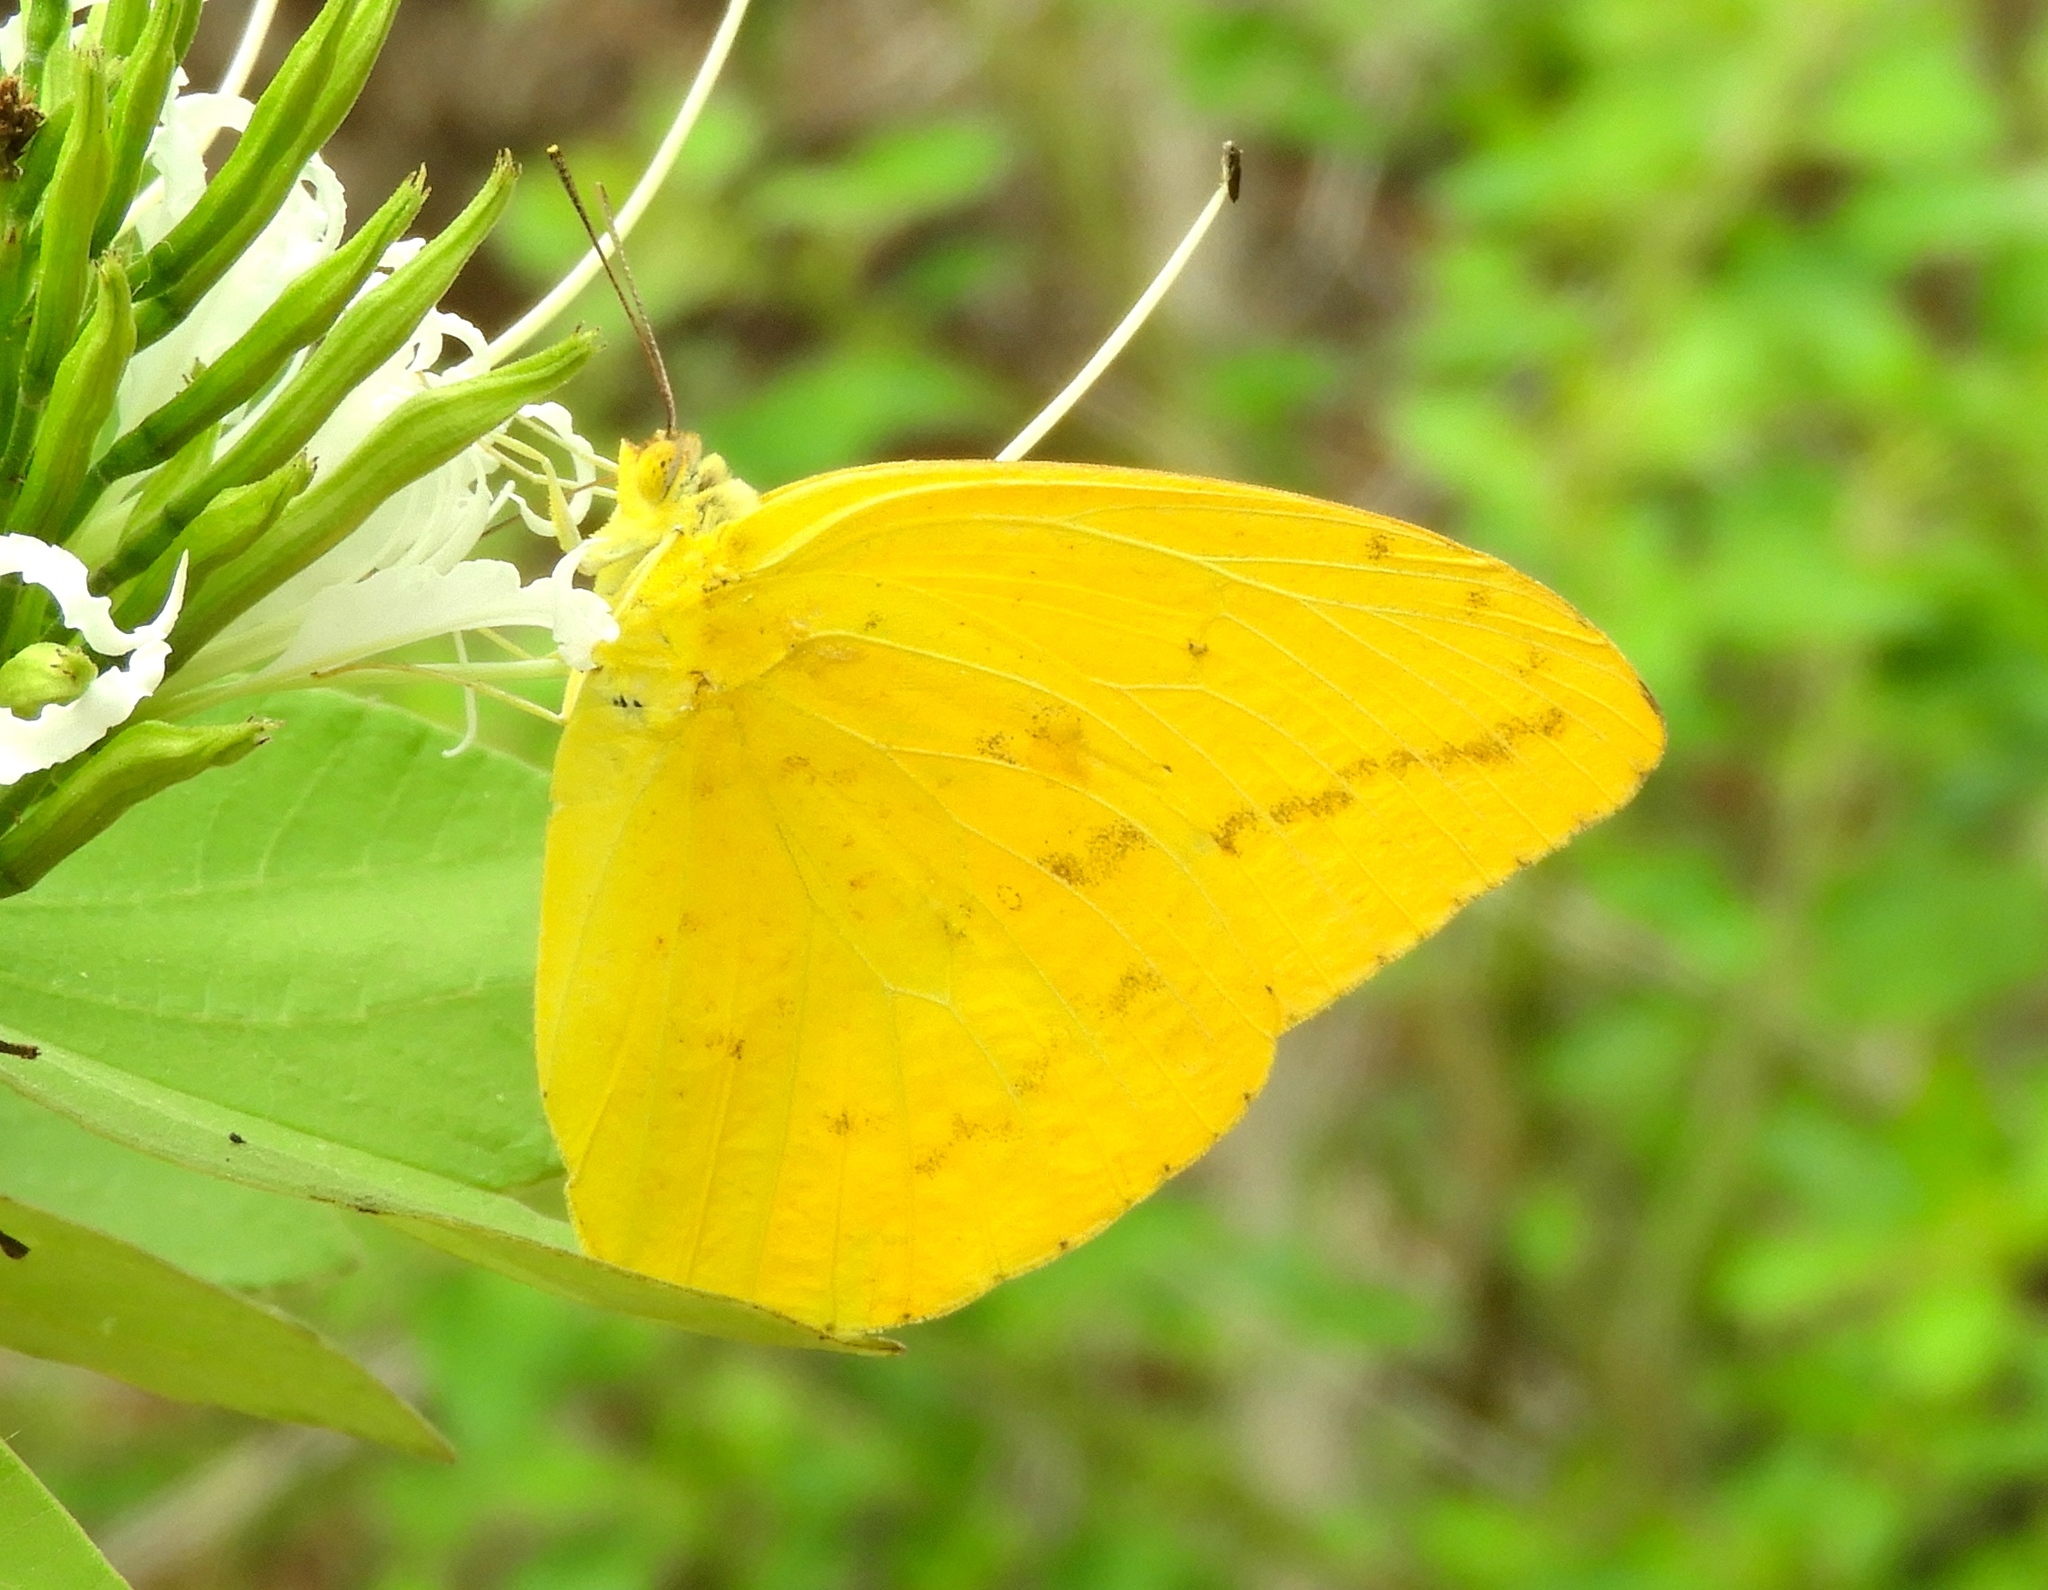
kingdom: Animalia
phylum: Arthropoda
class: Insecta
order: Lepidoptera
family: Pieridae
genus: Phoebis
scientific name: Phoebis agarithe
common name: Large orange sulphur
